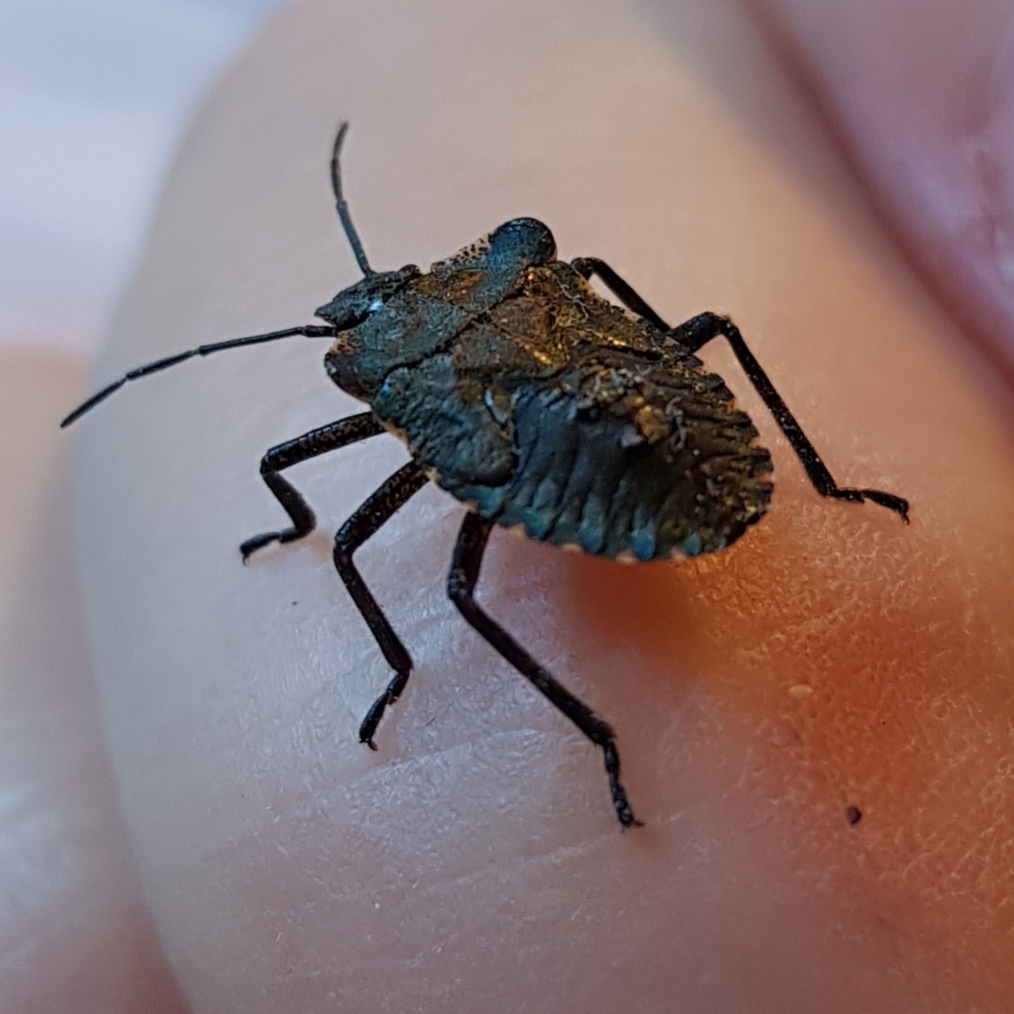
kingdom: Animalia
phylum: Arthropoda
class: Insecta
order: Hemiptera
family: Pentatomidae
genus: Pentatoma
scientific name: Pentatoma rufipes
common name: Forest bug
